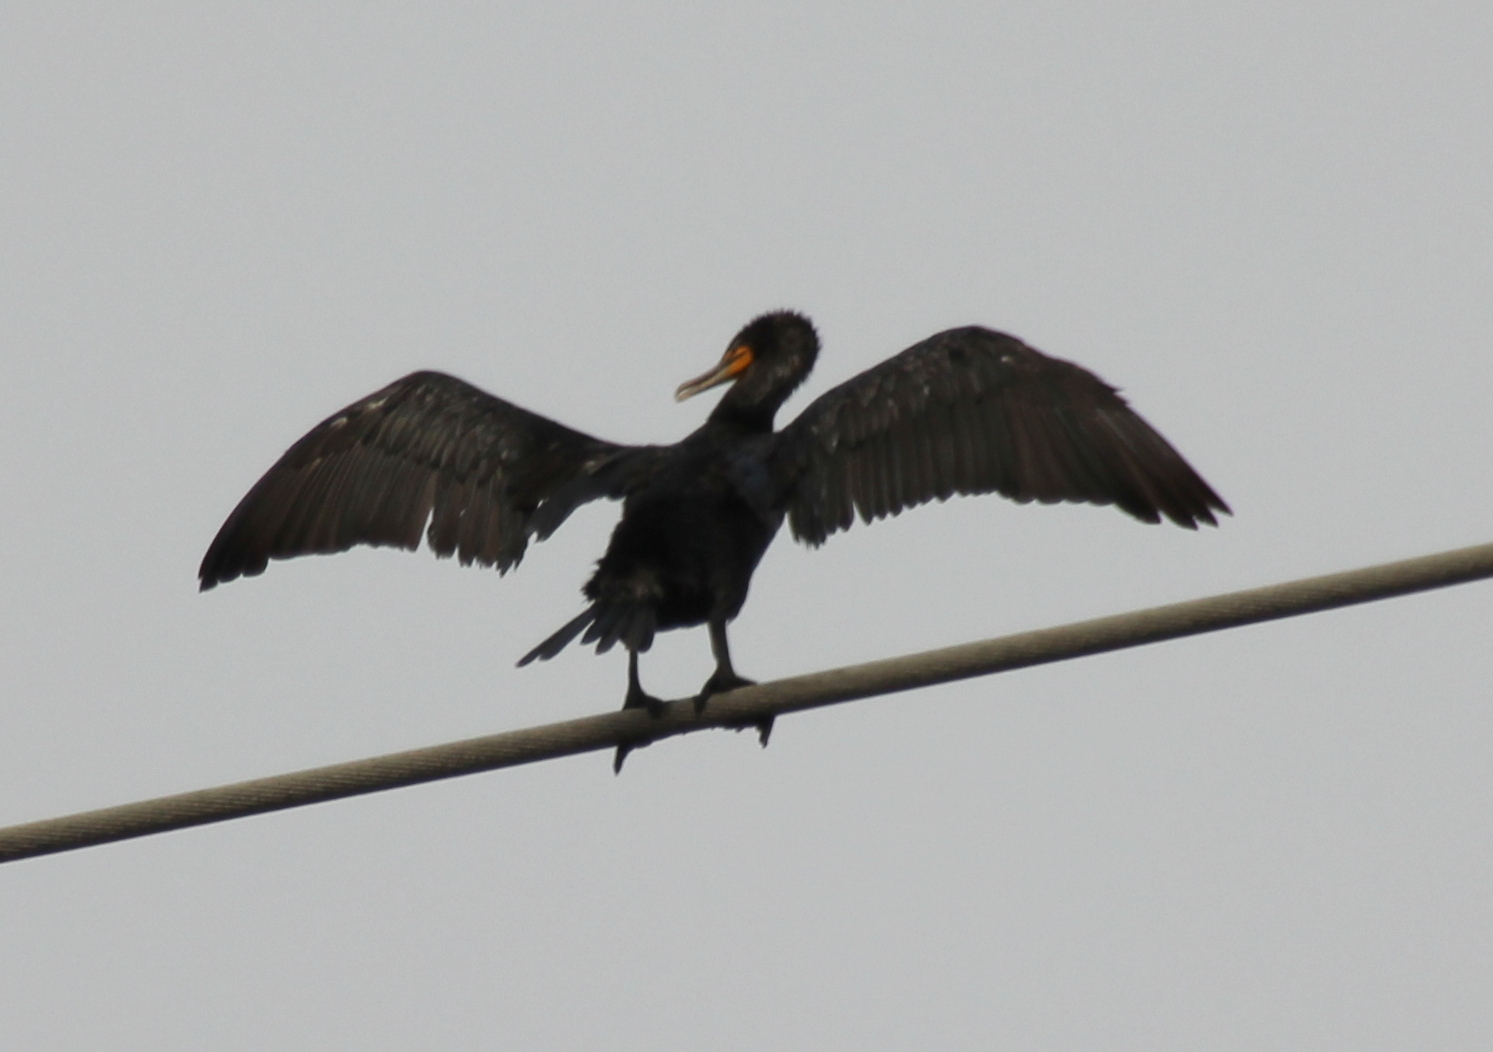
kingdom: Animalia
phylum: Chordata
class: Aves
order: Suliformes
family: Phalacrocoracidae
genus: Phalacrocorax
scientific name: Phalacrocorax auritus
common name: Double-crested cormorant
